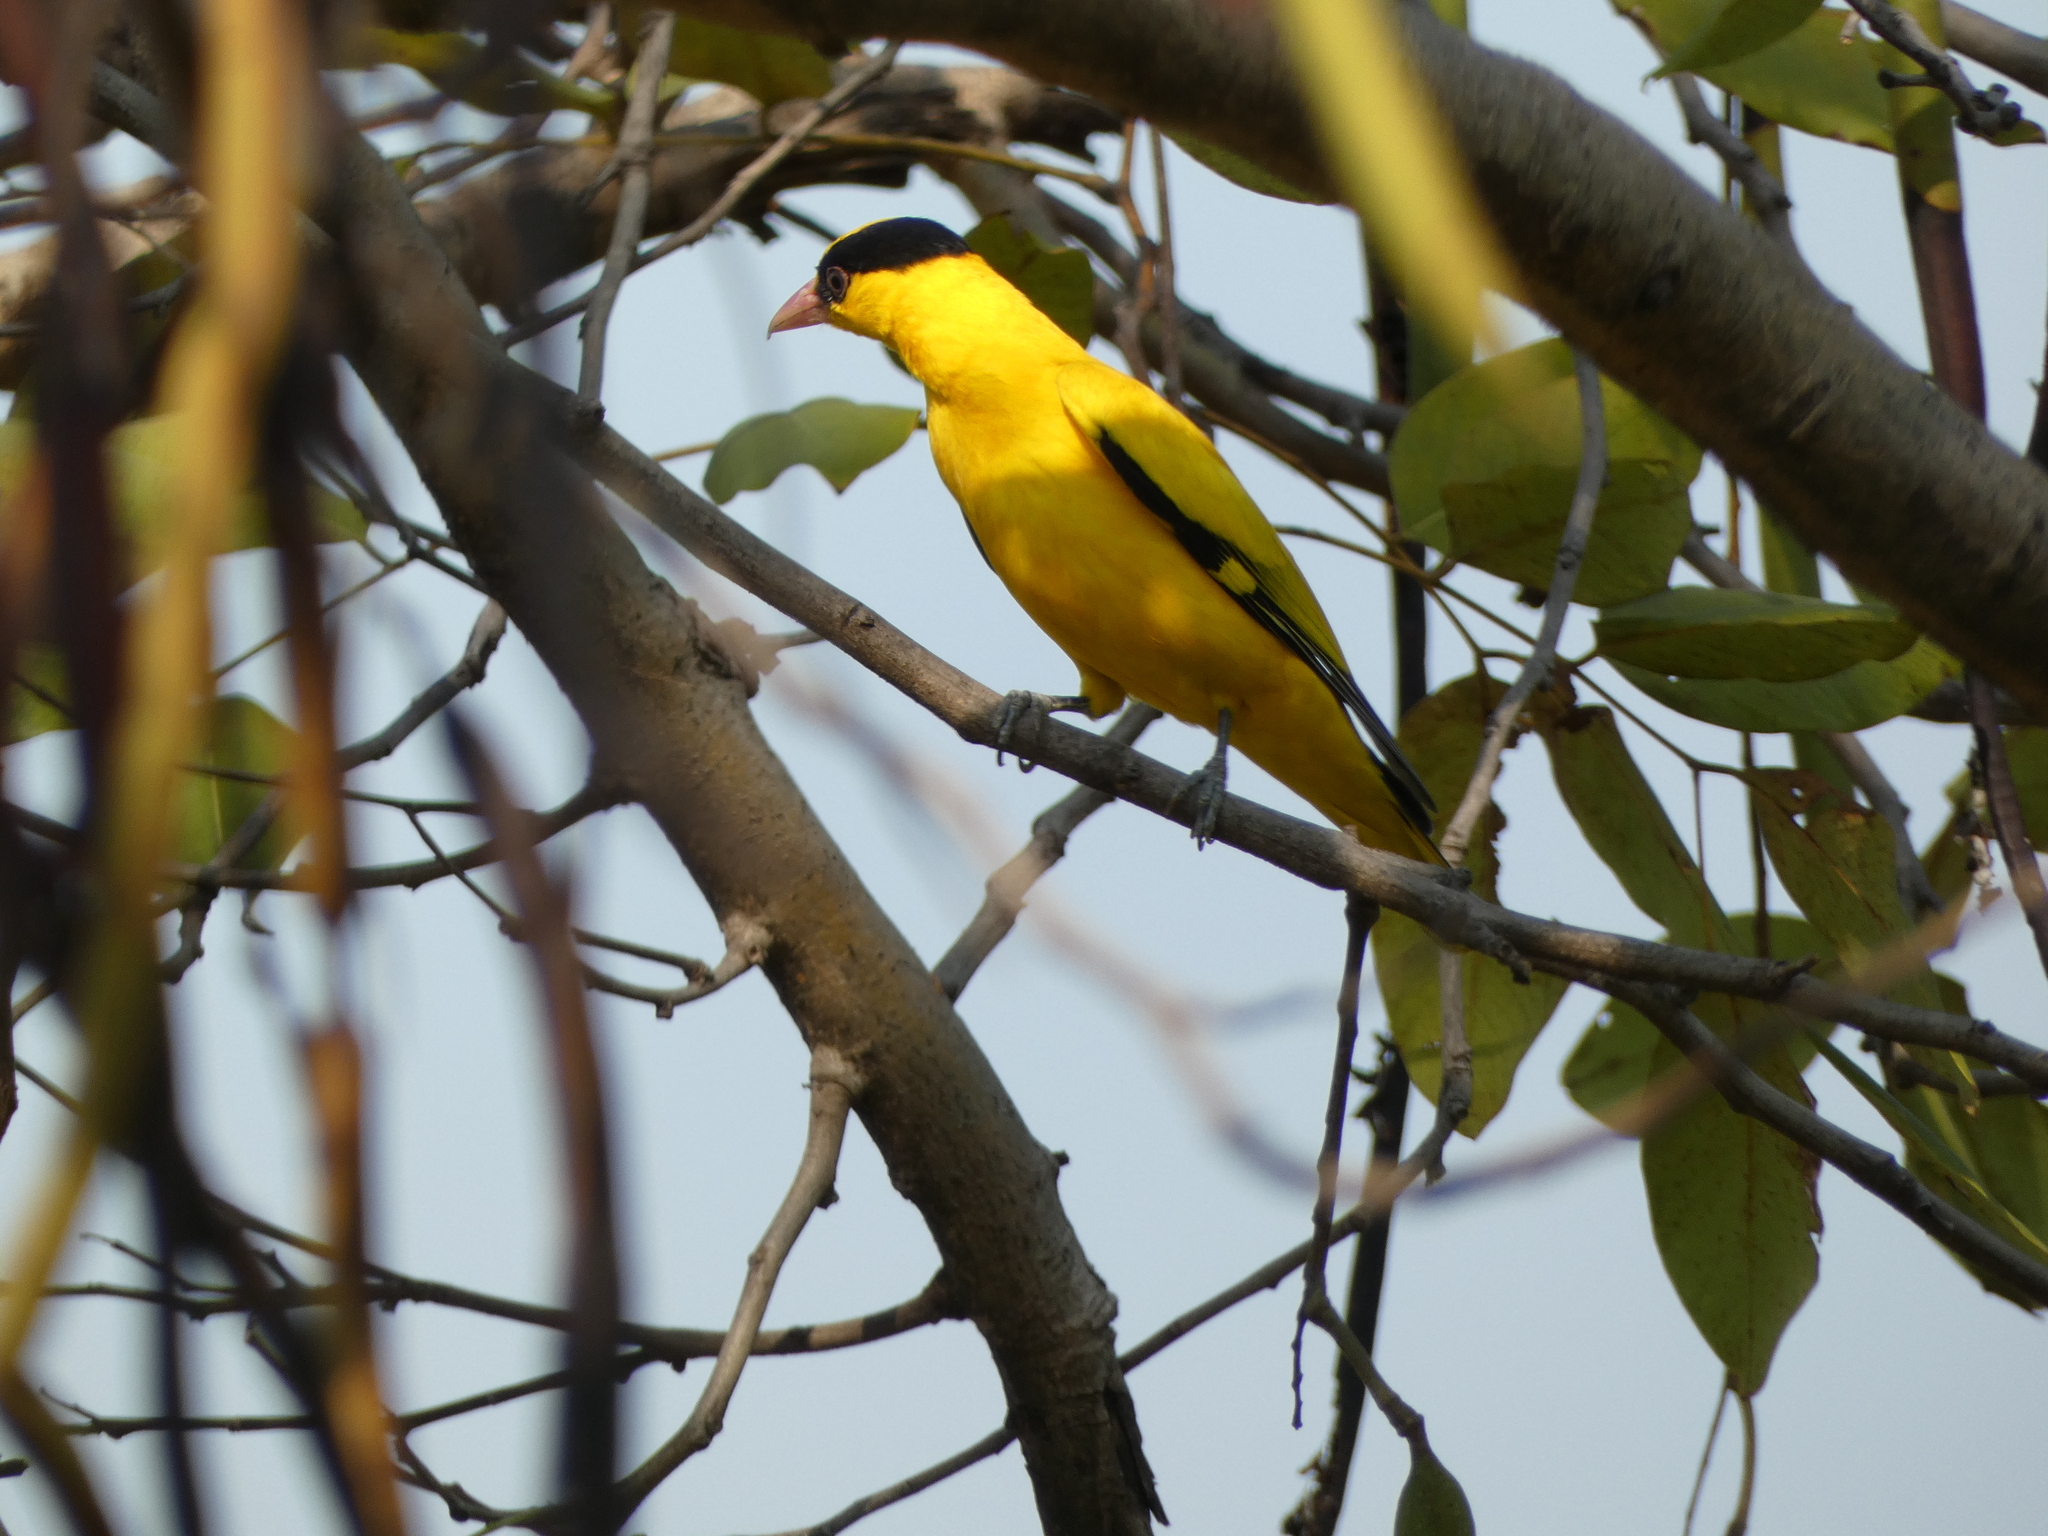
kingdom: Animalia
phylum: Chordata
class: Aves
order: Passeriformes
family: Oriolidae
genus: Oriolus
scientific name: Oriolus chinensis
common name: Black-naped oriole
